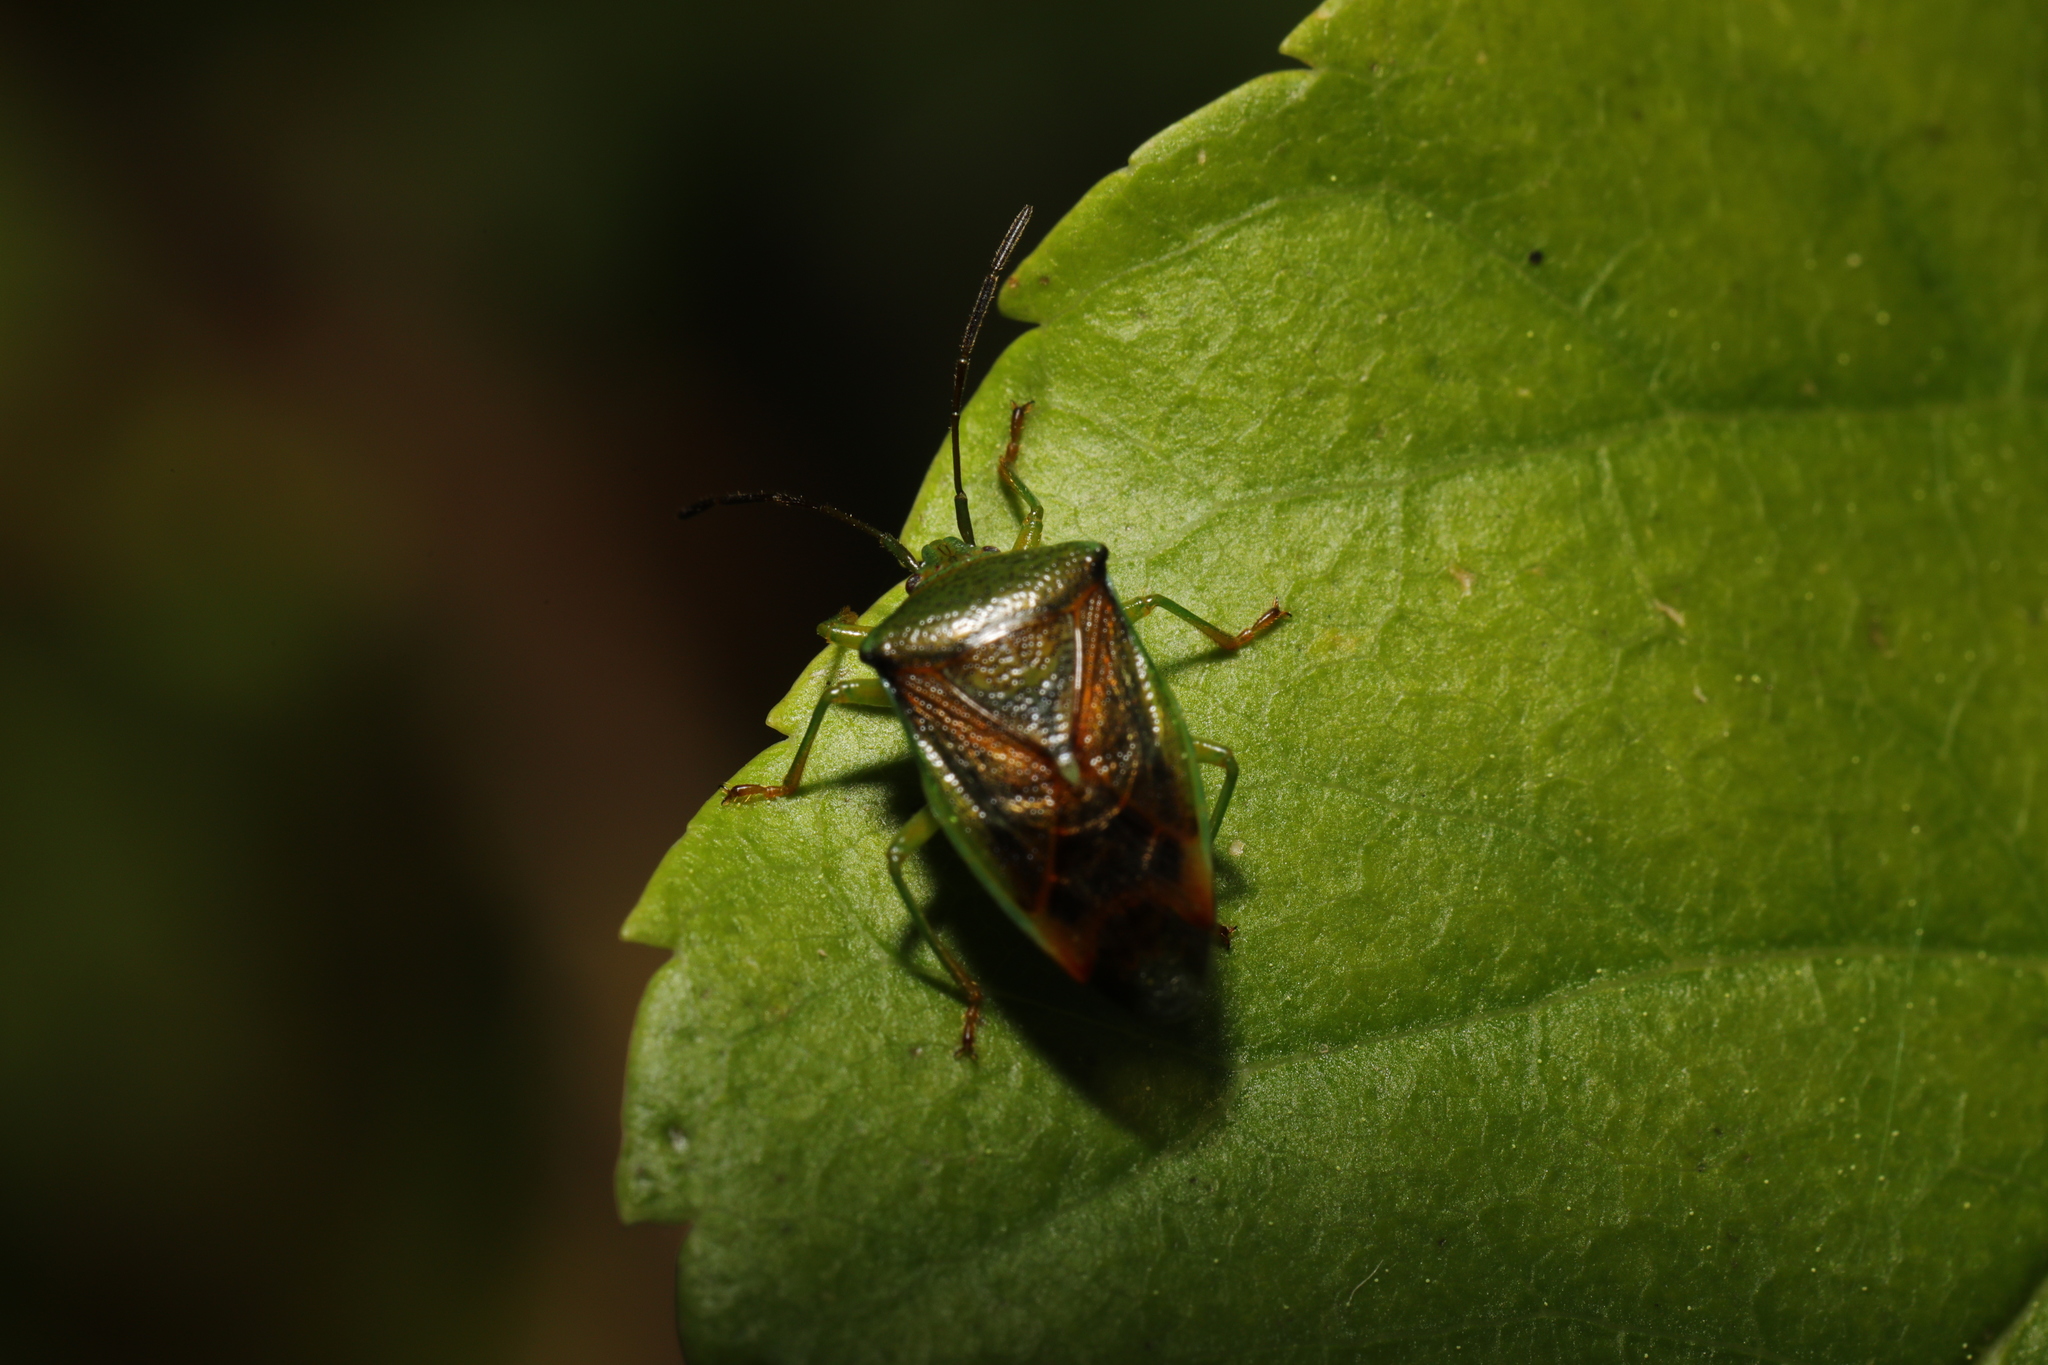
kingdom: Animalia
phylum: Arthropoda
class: Insecta
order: Hemiptera
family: Acanthosomatidae
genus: Elasmostethus
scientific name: Elasmostethus interstinctus
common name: Birch shieldbug
